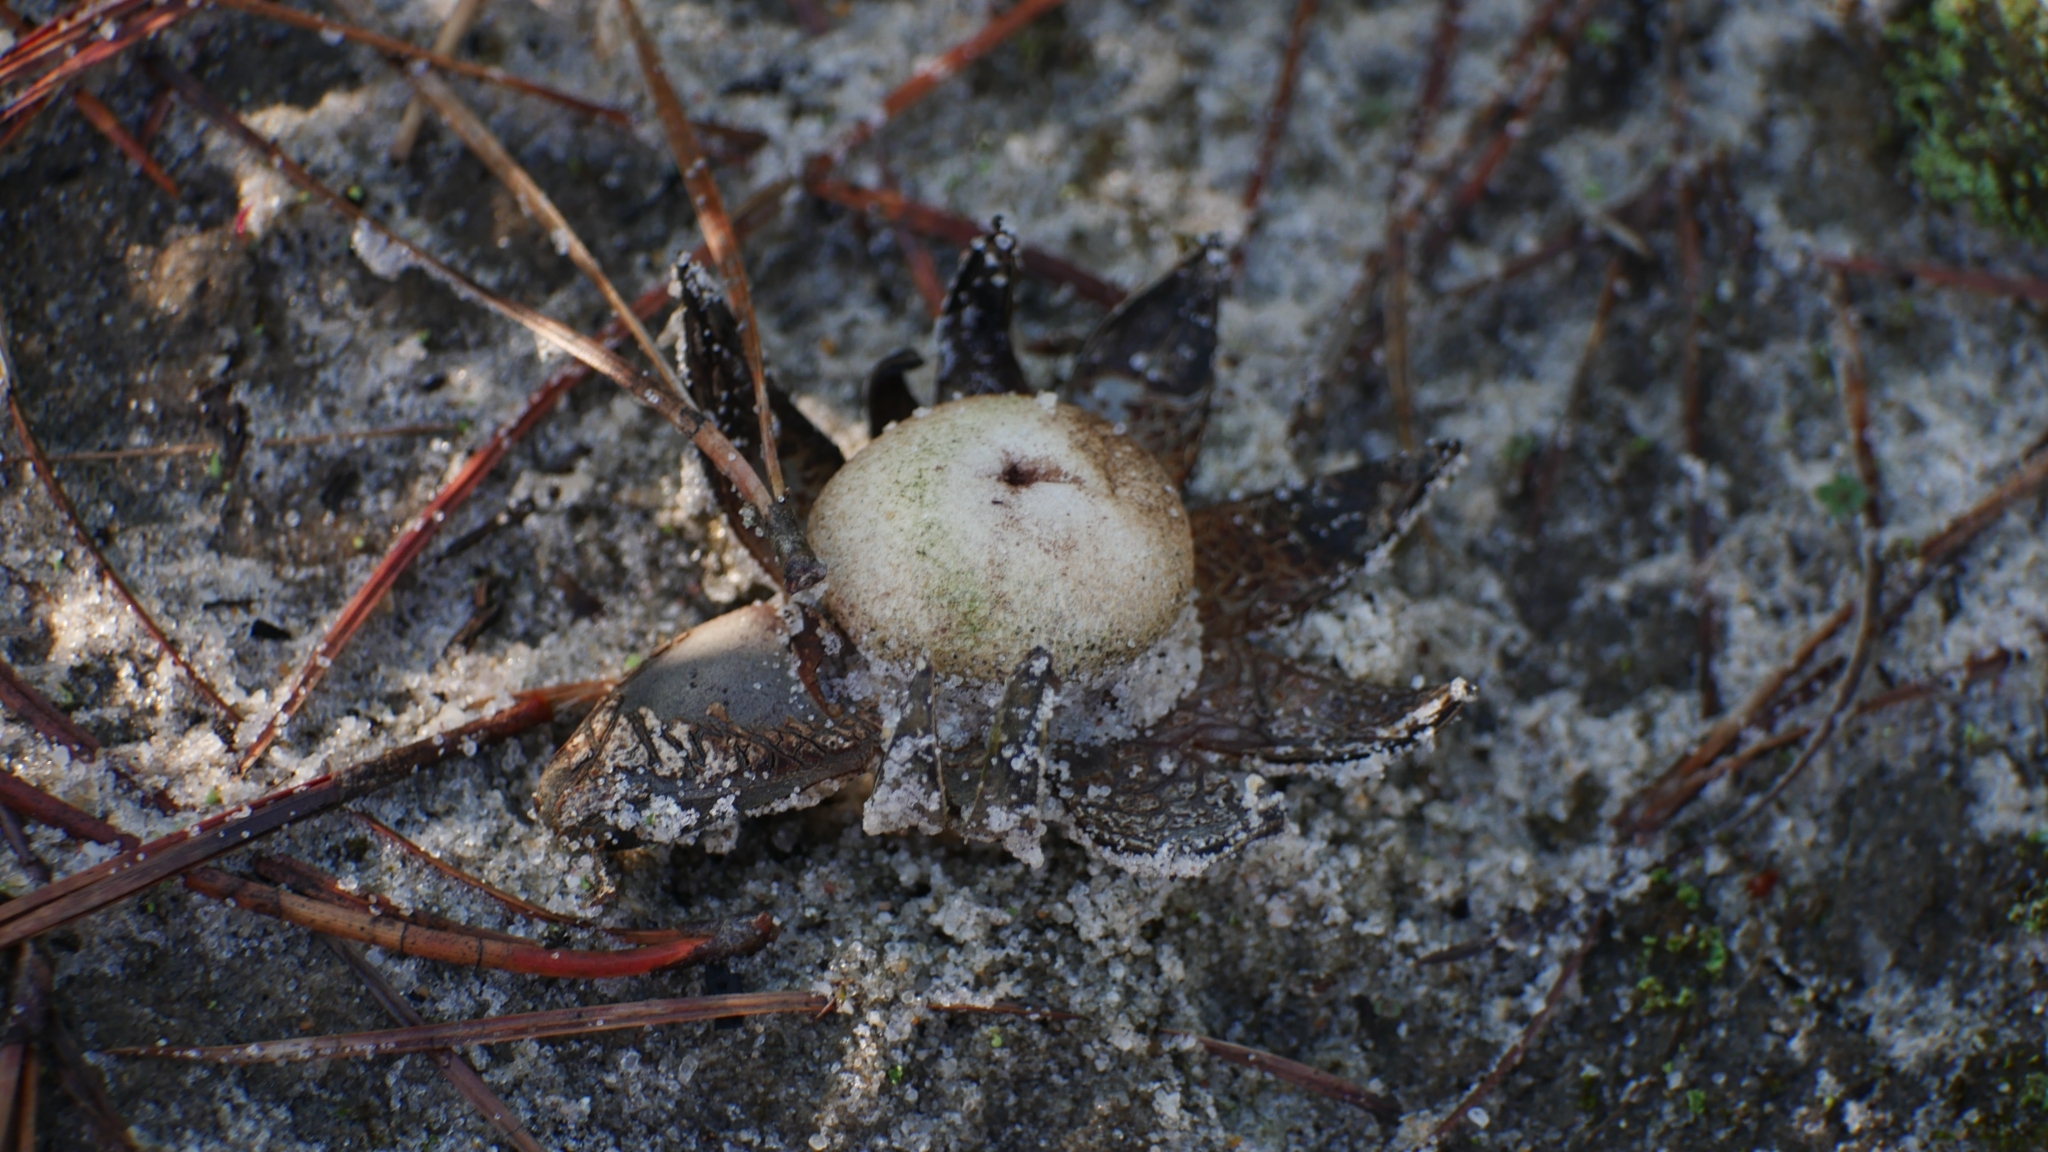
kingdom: Fungi
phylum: Basidiomycota
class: Agaricomycetes
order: Boletales
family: Diplocystidiaceae
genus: Astraeus
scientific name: Astraeus smithii
